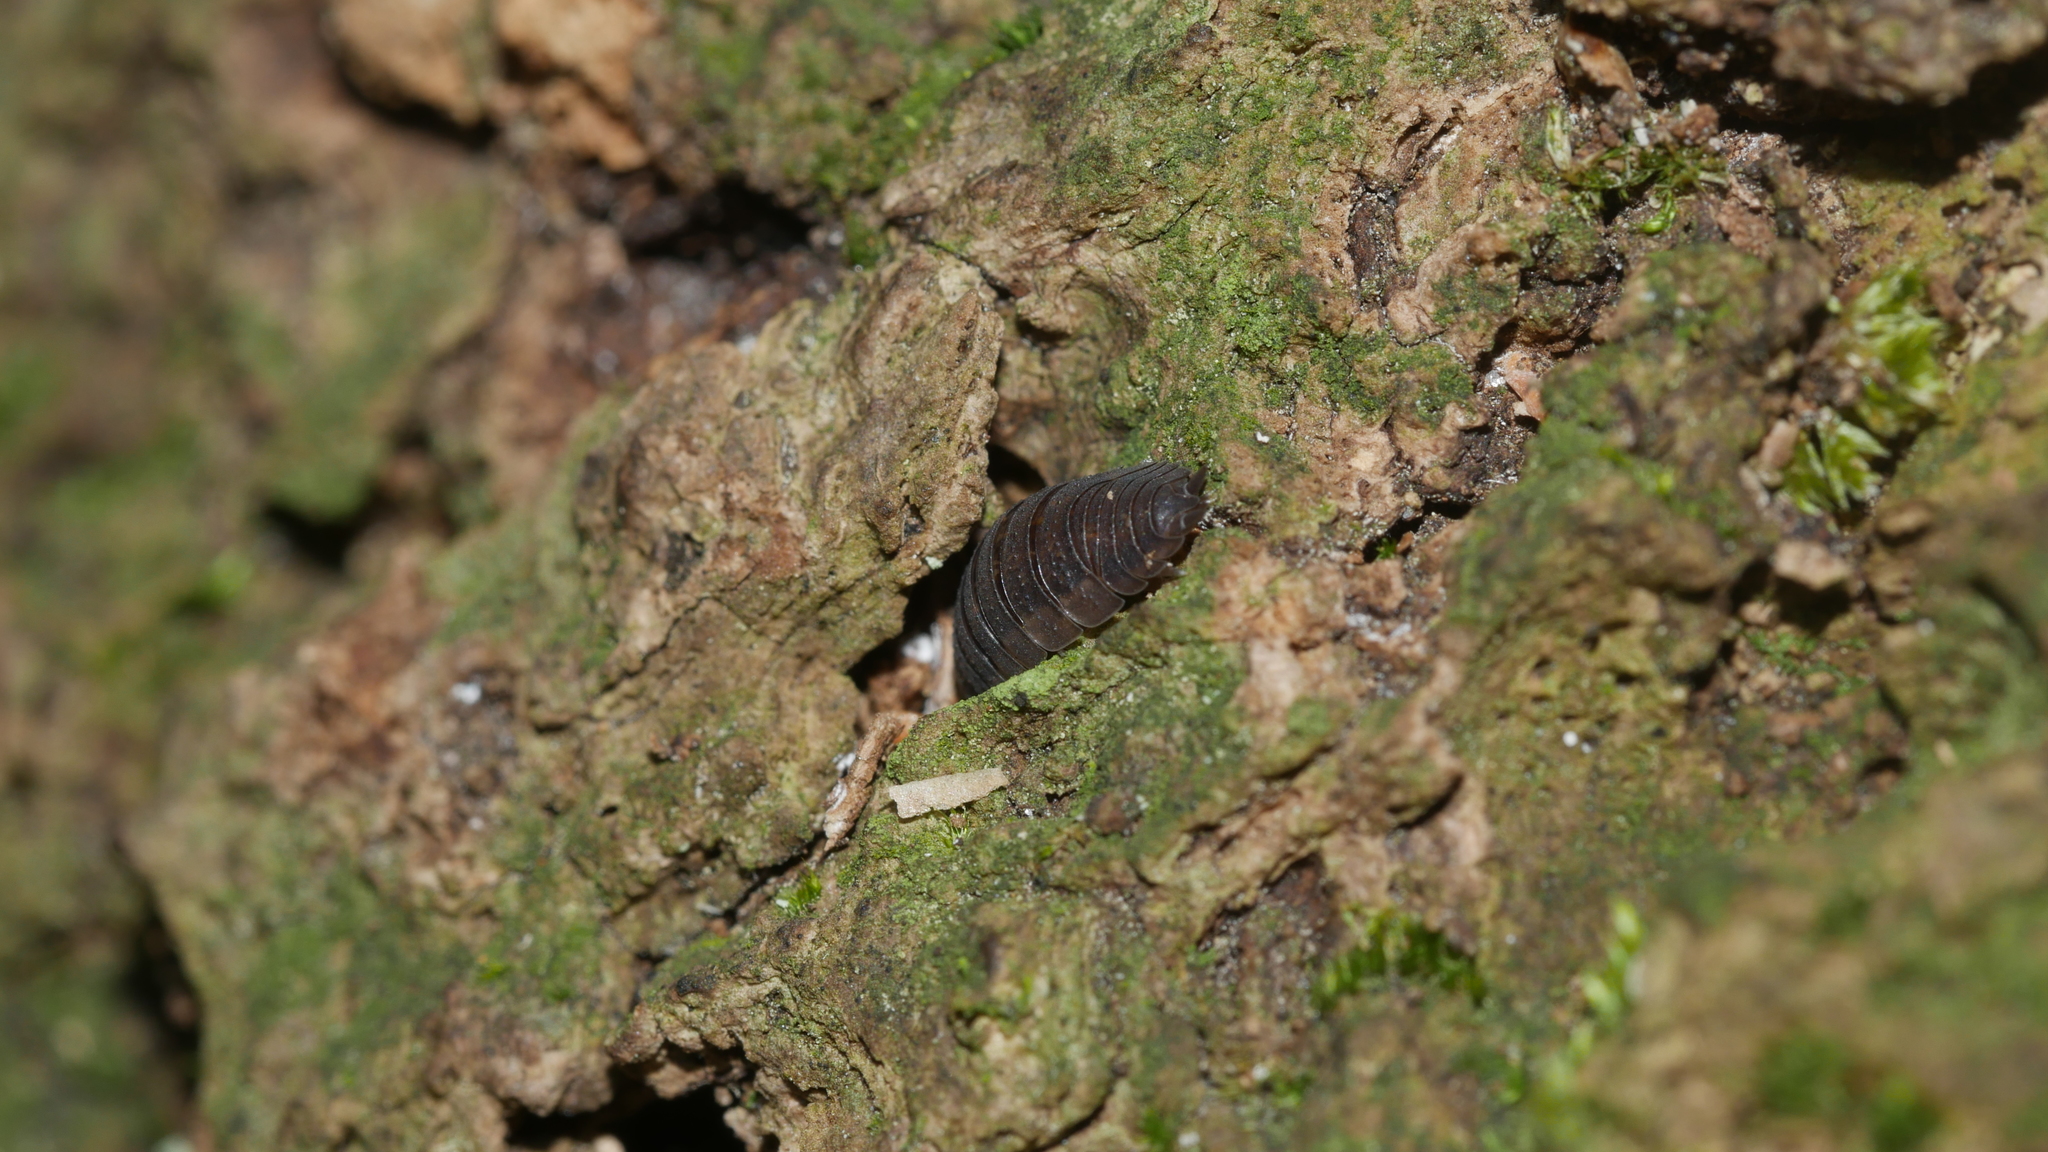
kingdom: Animalia
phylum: Arthropoda
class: Malacostraca
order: Isopoda
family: Porcellionidae
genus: Porcellio
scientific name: Porcellio scaber
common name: Common rough woodlouse
